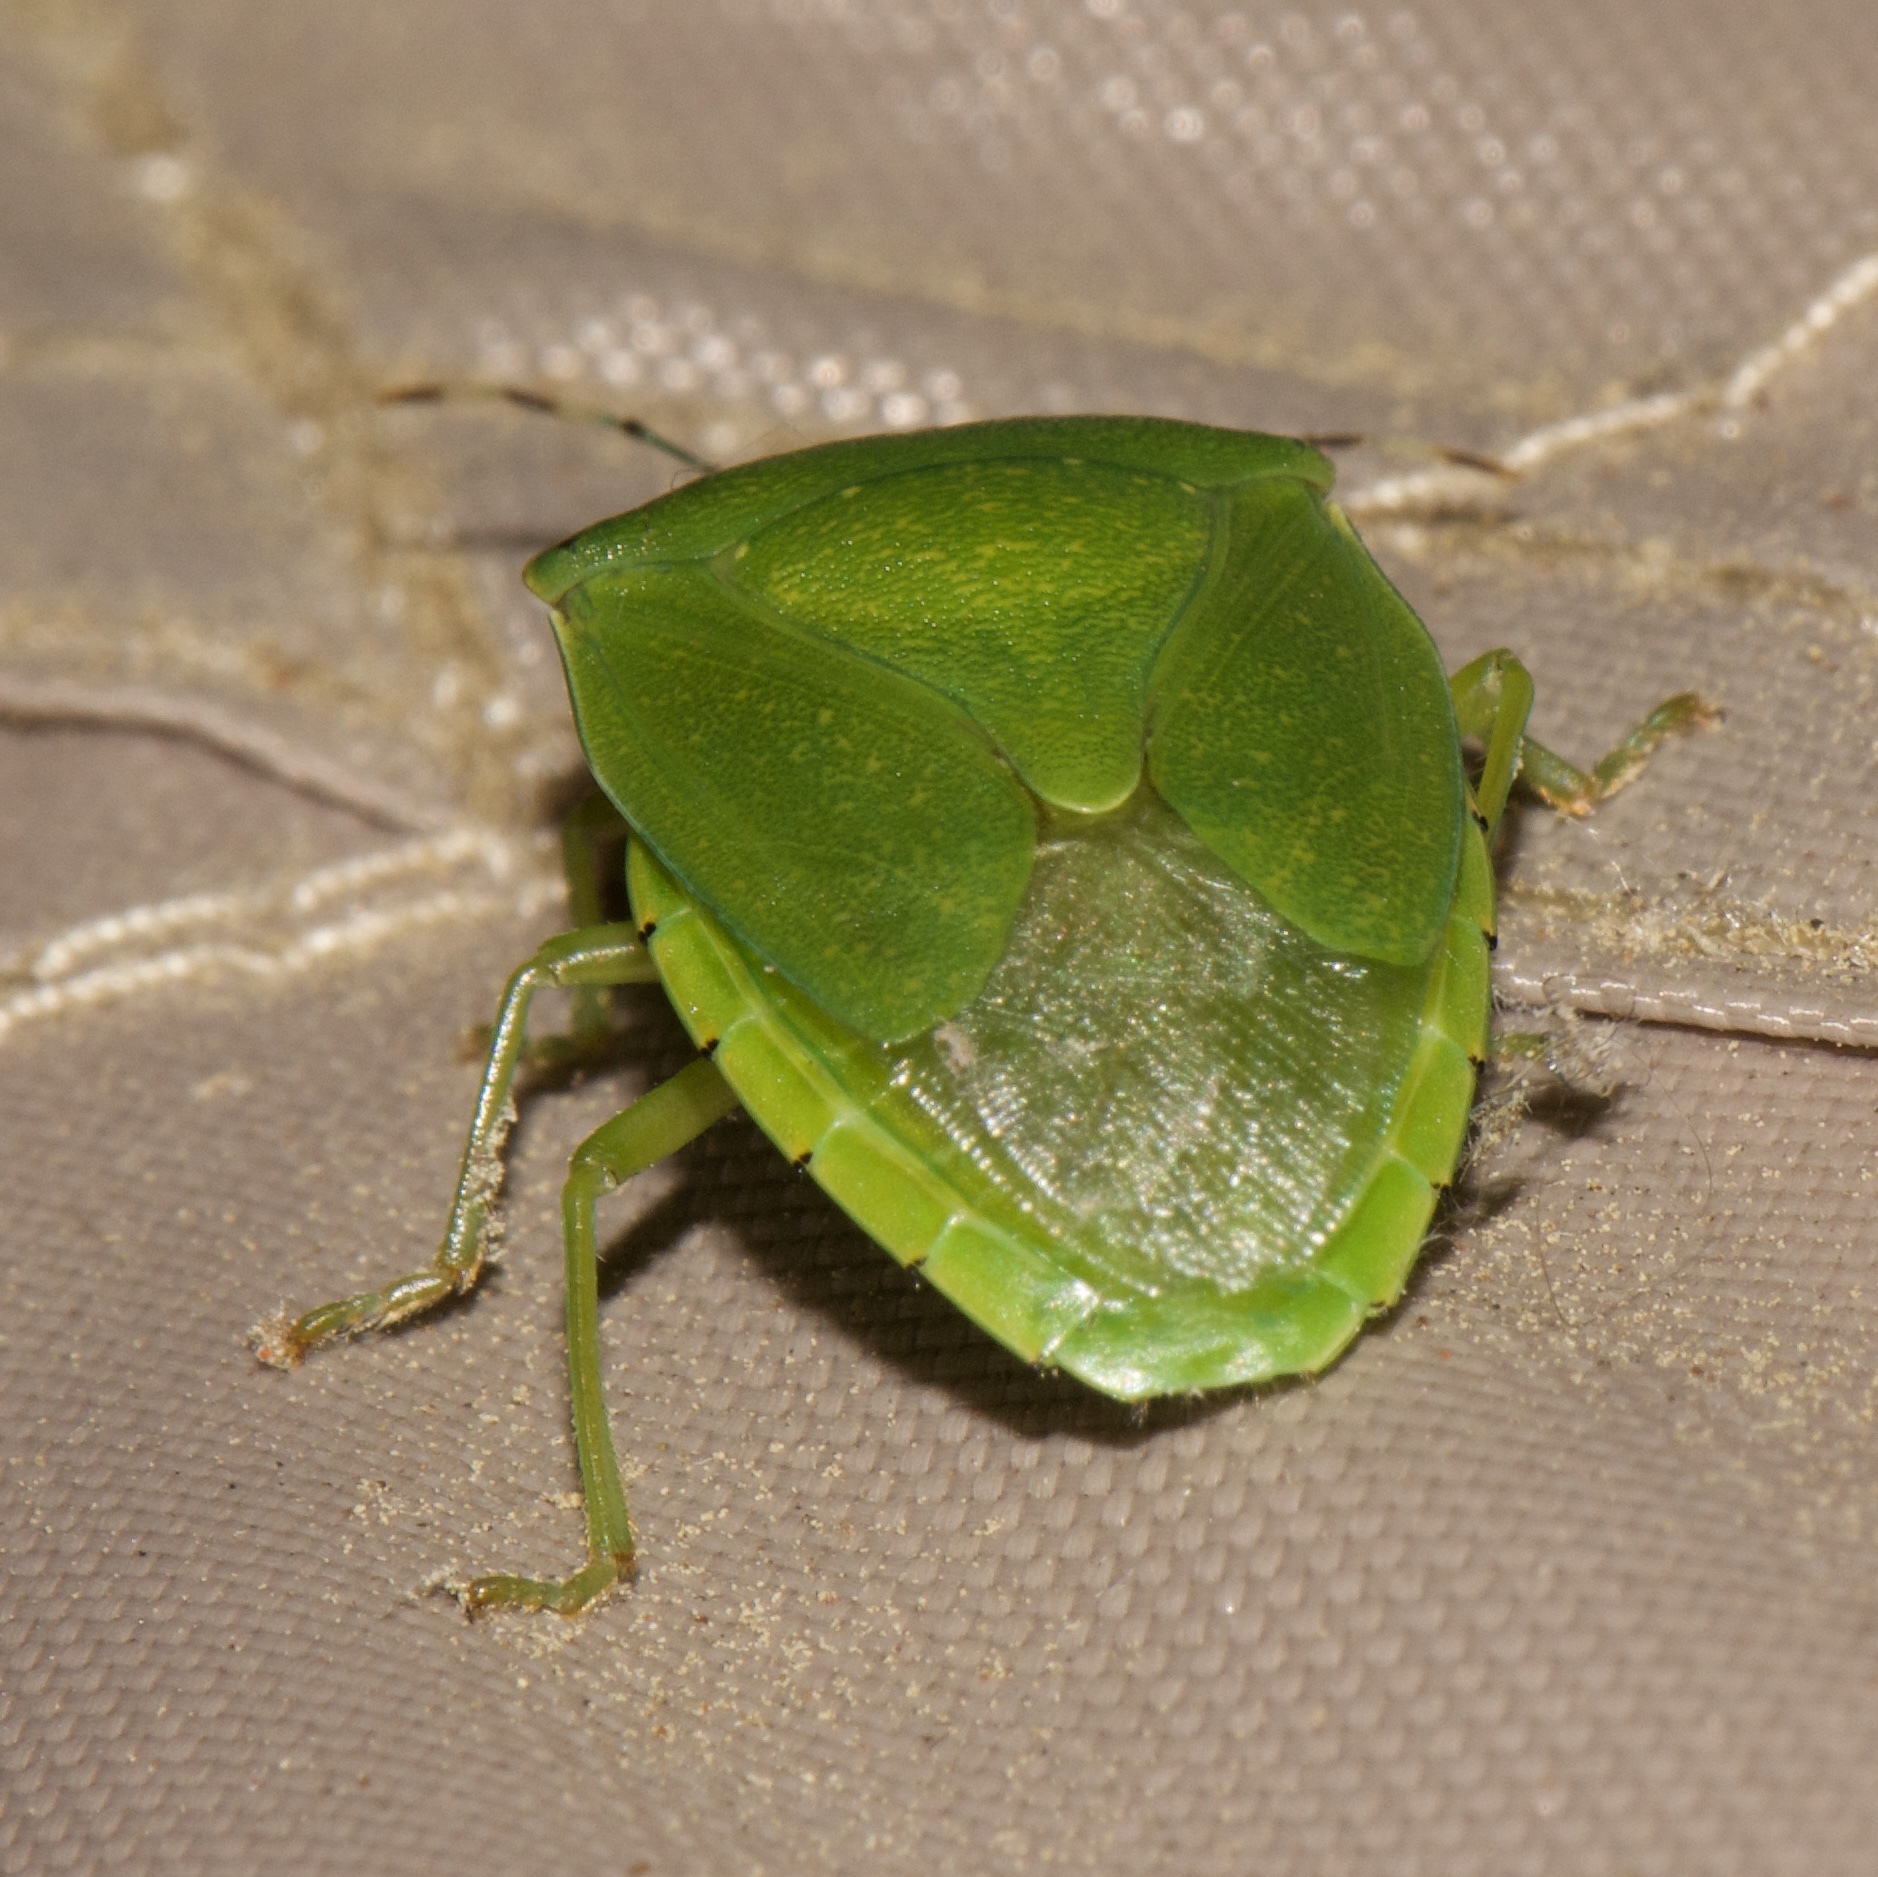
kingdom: Animalia
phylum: Arthropoda
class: Insecta
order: Hemiptera
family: Pentatomidae
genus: Chinavia
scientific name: Chinavia hilaris
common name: Green stink bug
